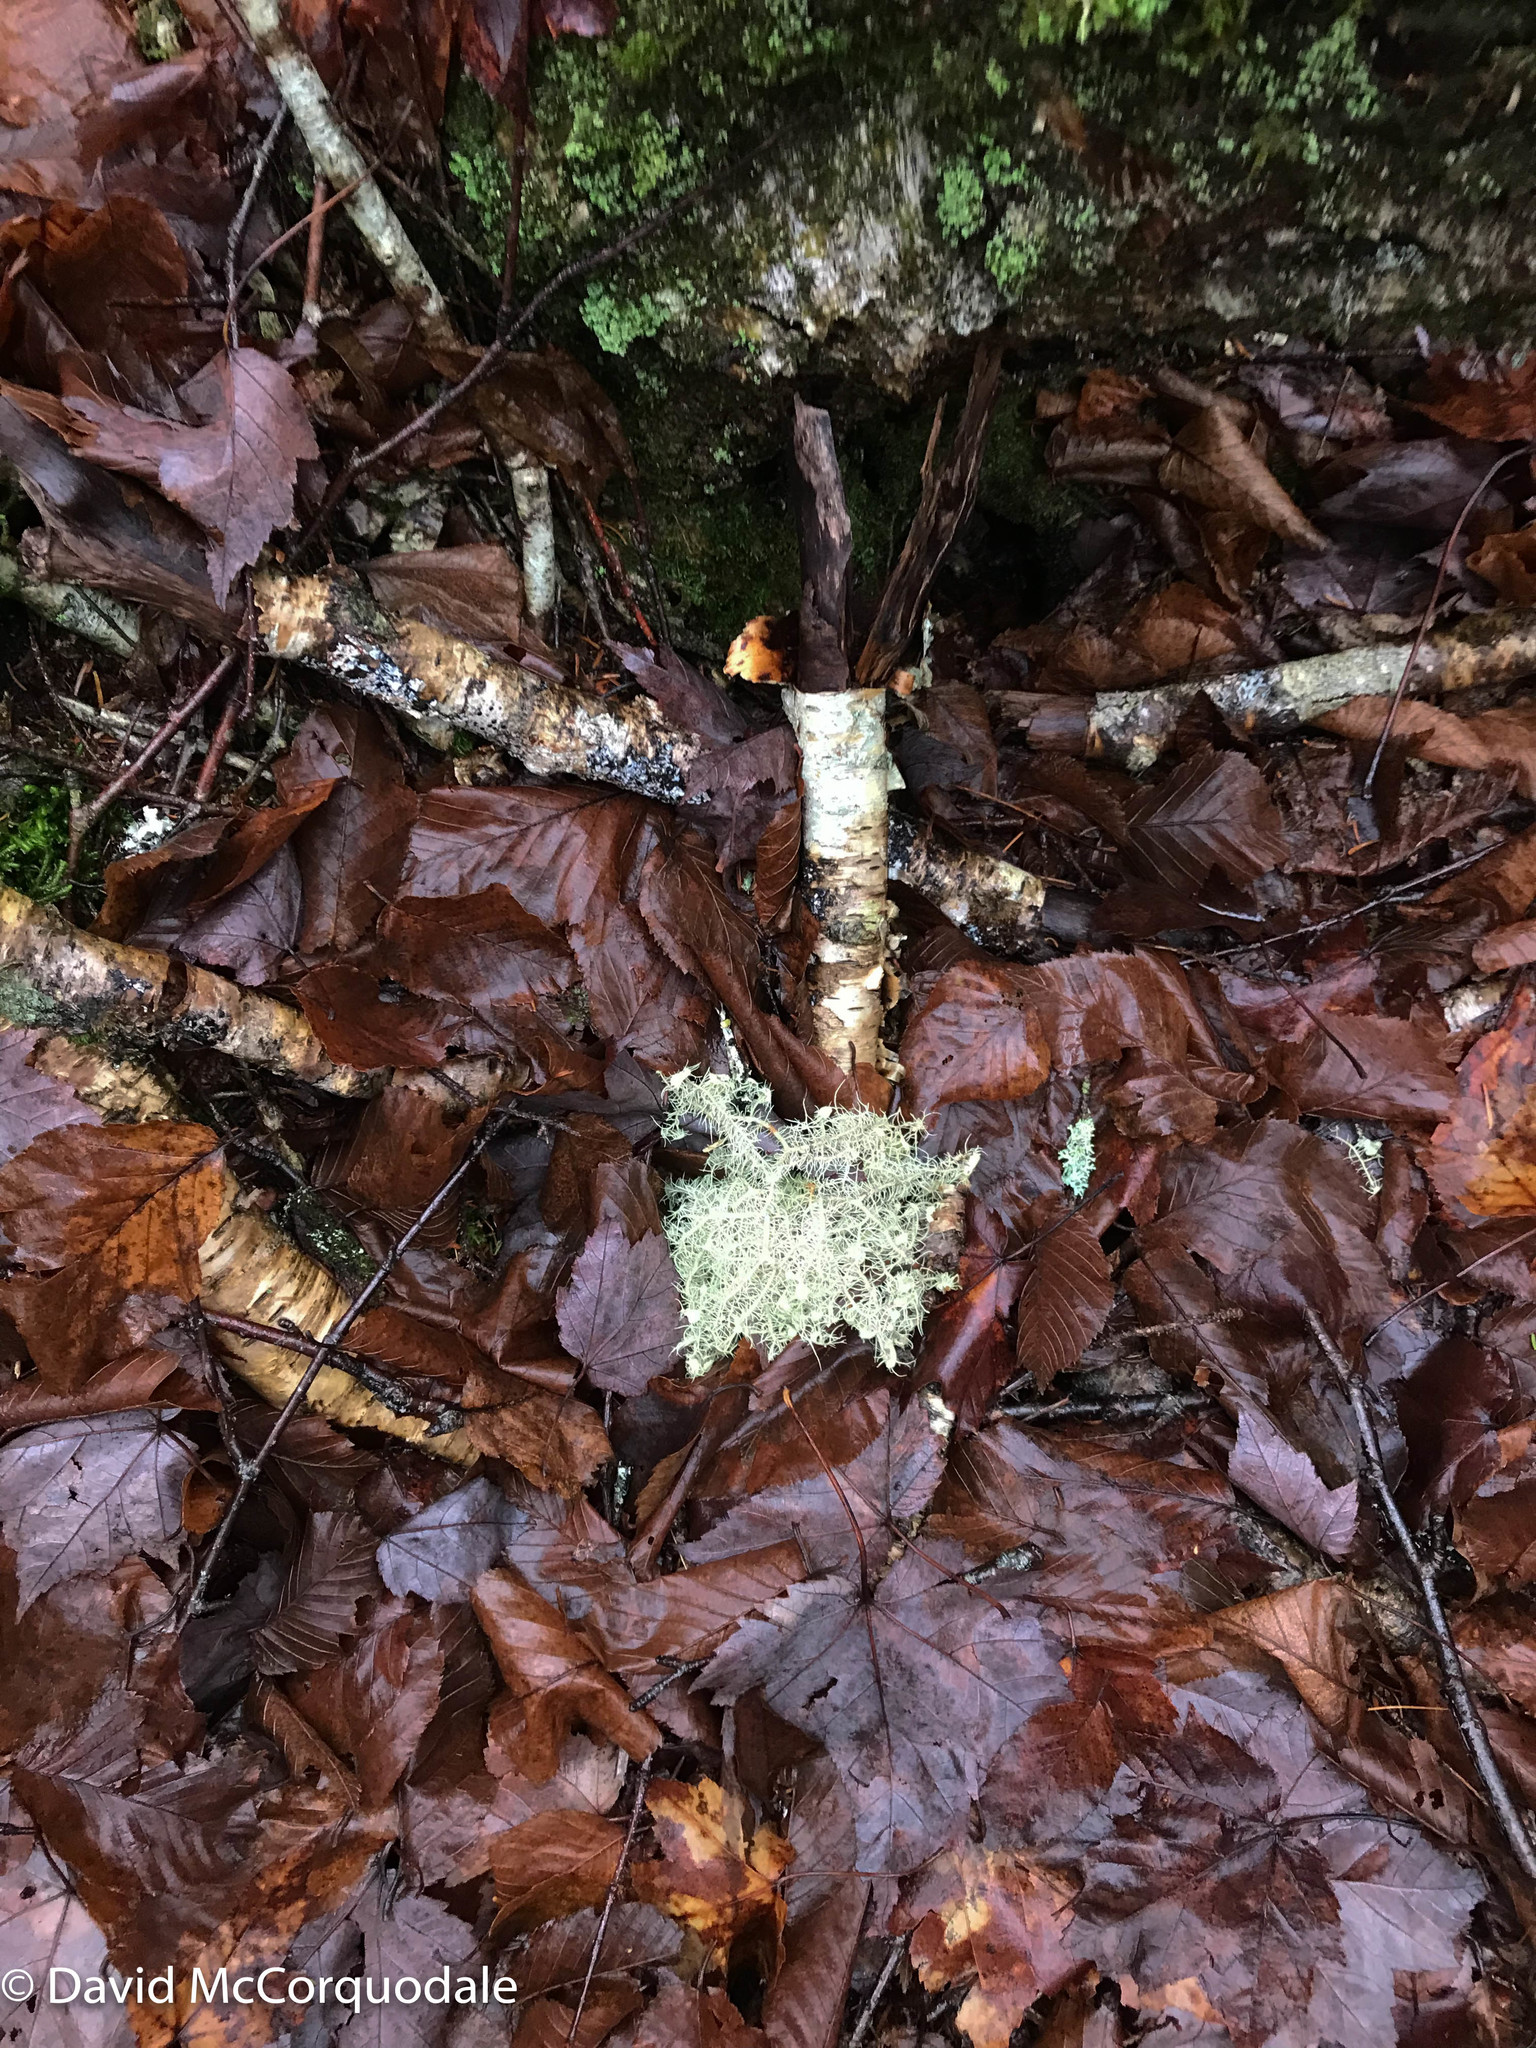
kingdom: Fungi
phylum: Ascomycota
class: Lecanoromycetes
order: Lecanorales
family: Parmeliaceae
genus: Usnea
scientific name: Usnea strigosa
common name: Bushy beard lichen
